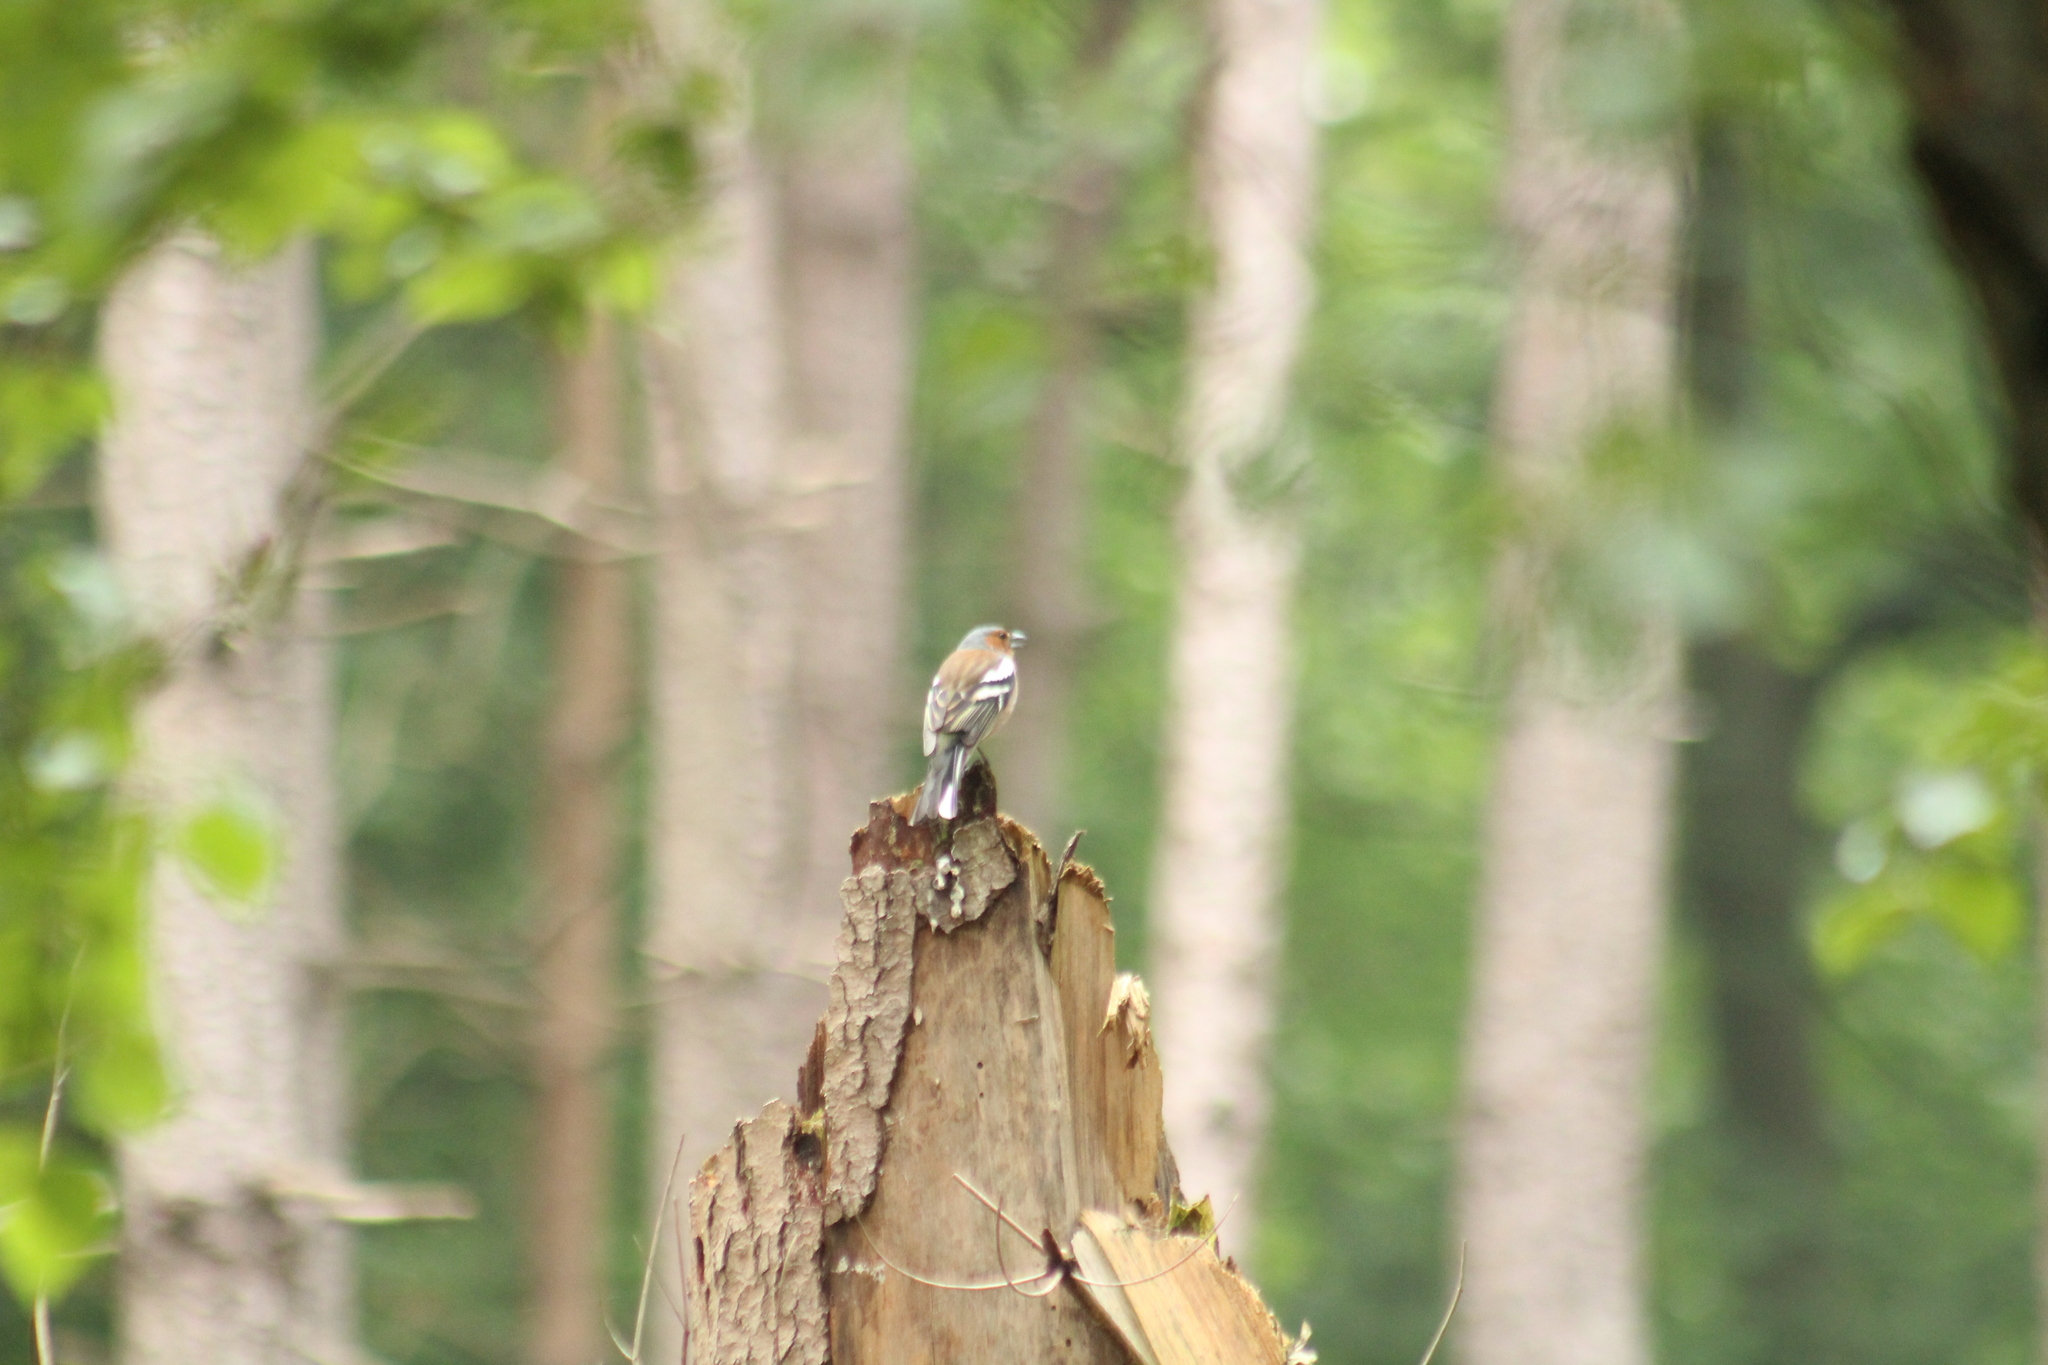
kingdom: Animalia
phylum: Chordata
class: Aves
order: Passeriformes
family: Fringillidae
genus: Fringilla
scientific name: Fringilla coelebs
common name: Common chaffinch
